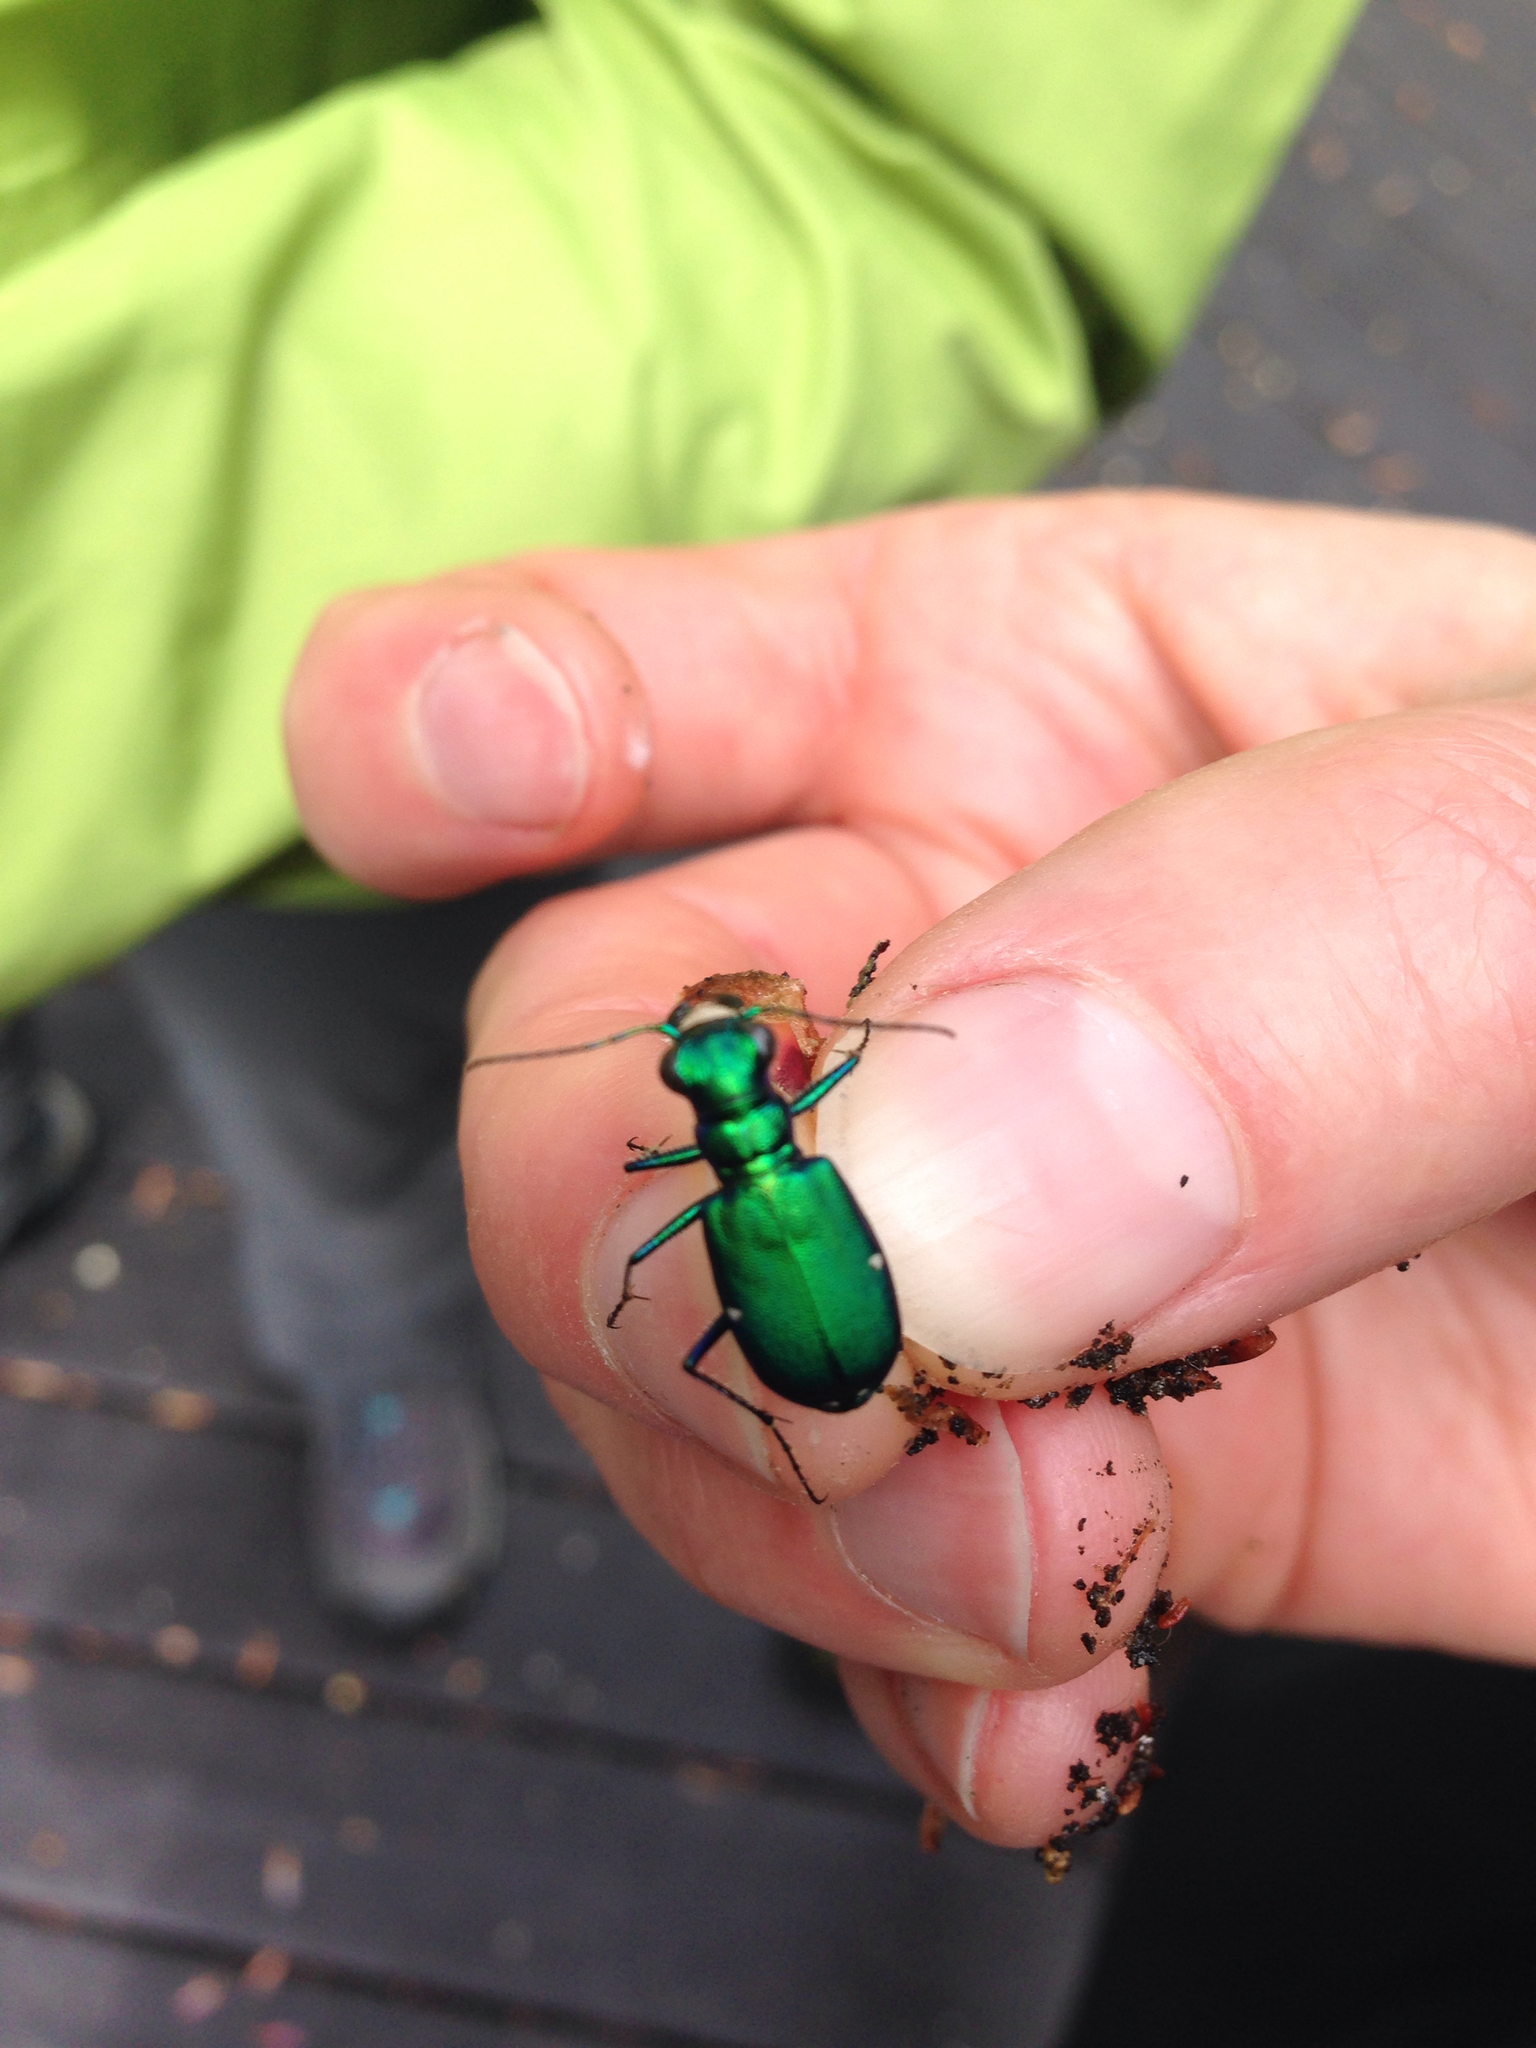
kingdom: Animalia
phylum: Arthropoda
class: Insecta
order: Coleoptera
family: Carabidae
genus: Cicindela
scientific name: Cicindela sexguttata
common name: Six-spotted tiger beetle
